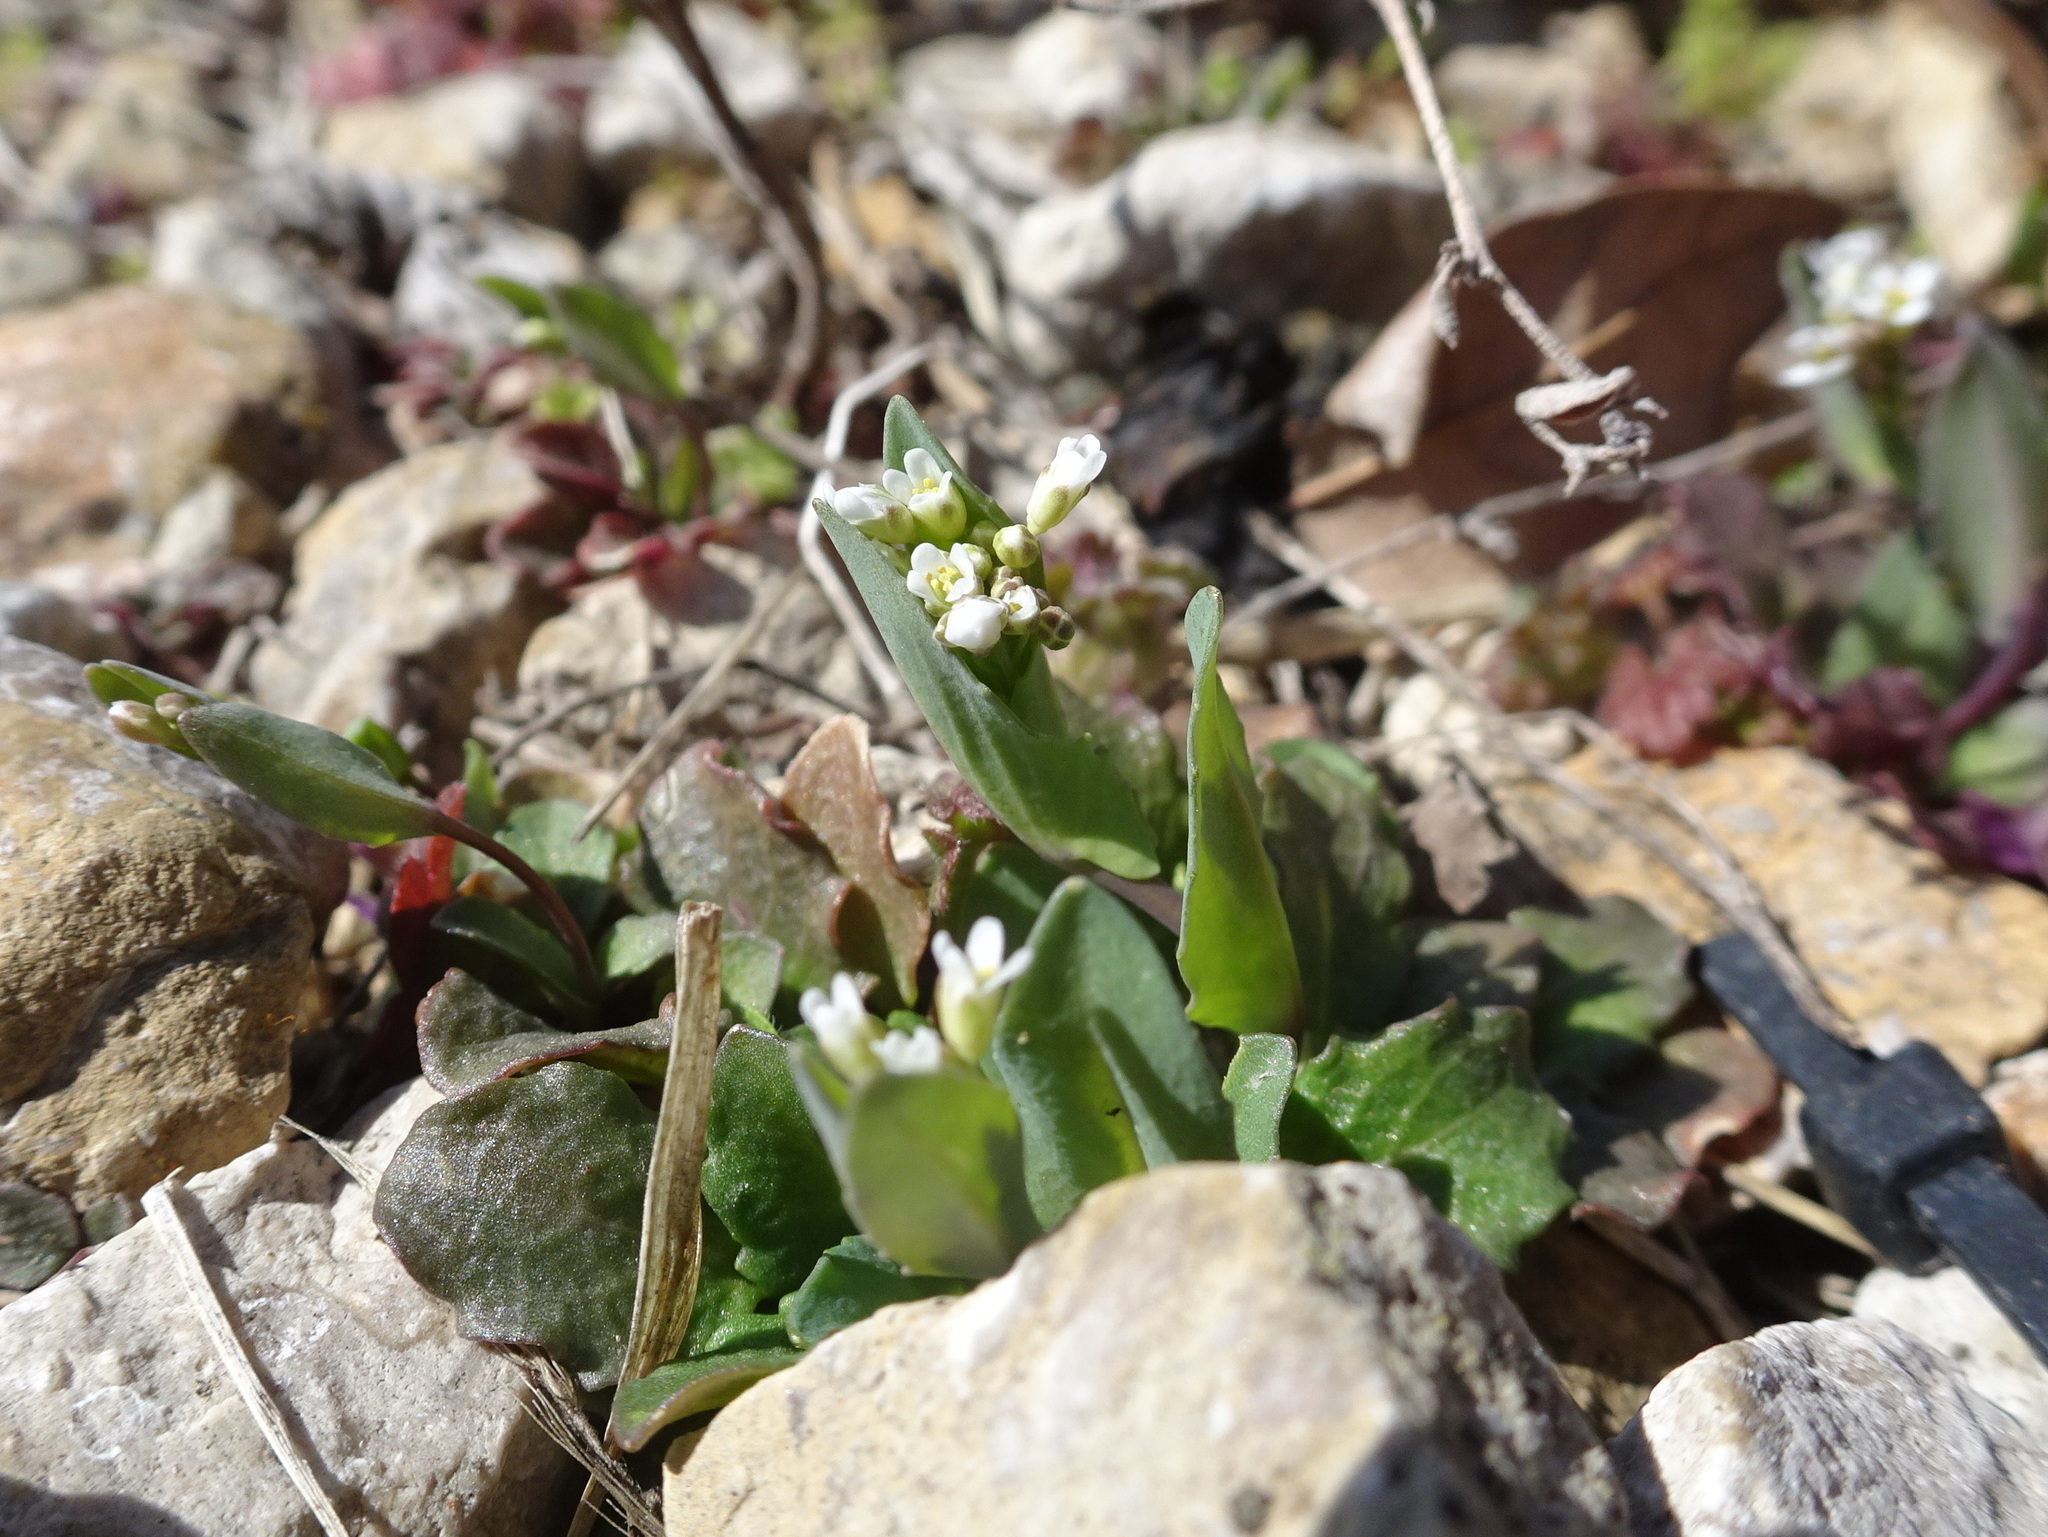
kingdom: Plantae
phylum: Tracheophyta
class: Magnoliopsida
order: Brassicales
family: Brassicaceae
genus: Noccaea
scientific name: Noccaea perfoliata
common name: Perfoliate pennycress
